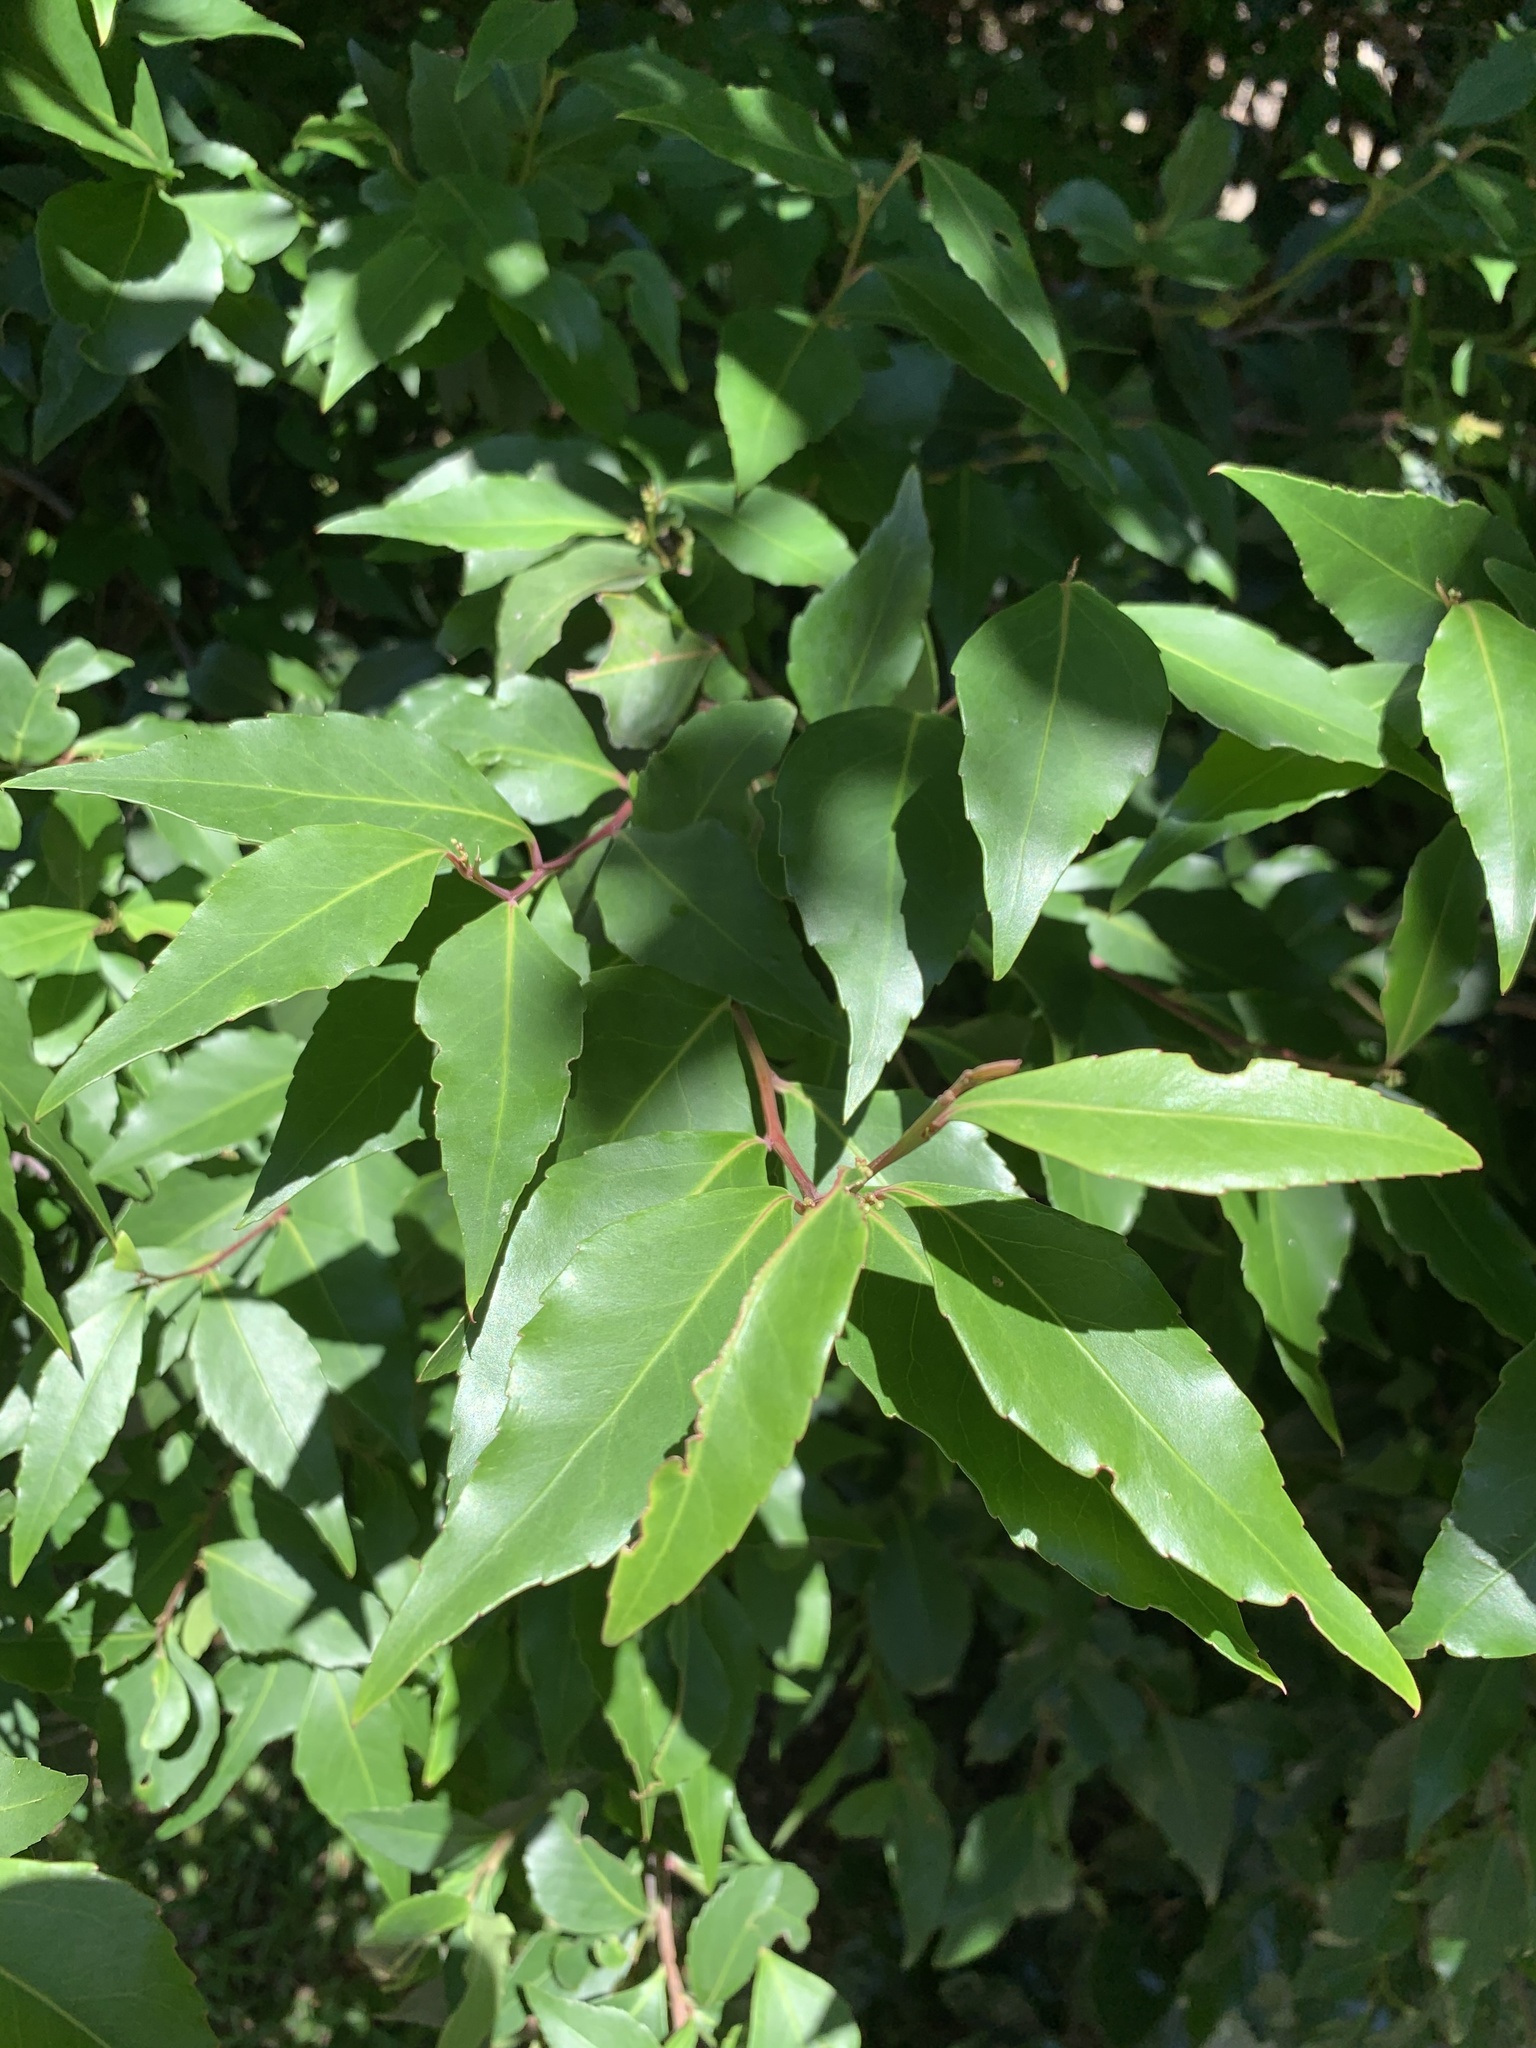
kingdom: Plantae
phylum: Tracheophyta
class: Magnoliopsida
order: Celastrales
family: Celastraceae
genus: Gymnosporia
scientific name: Gymnosporia acuminata
